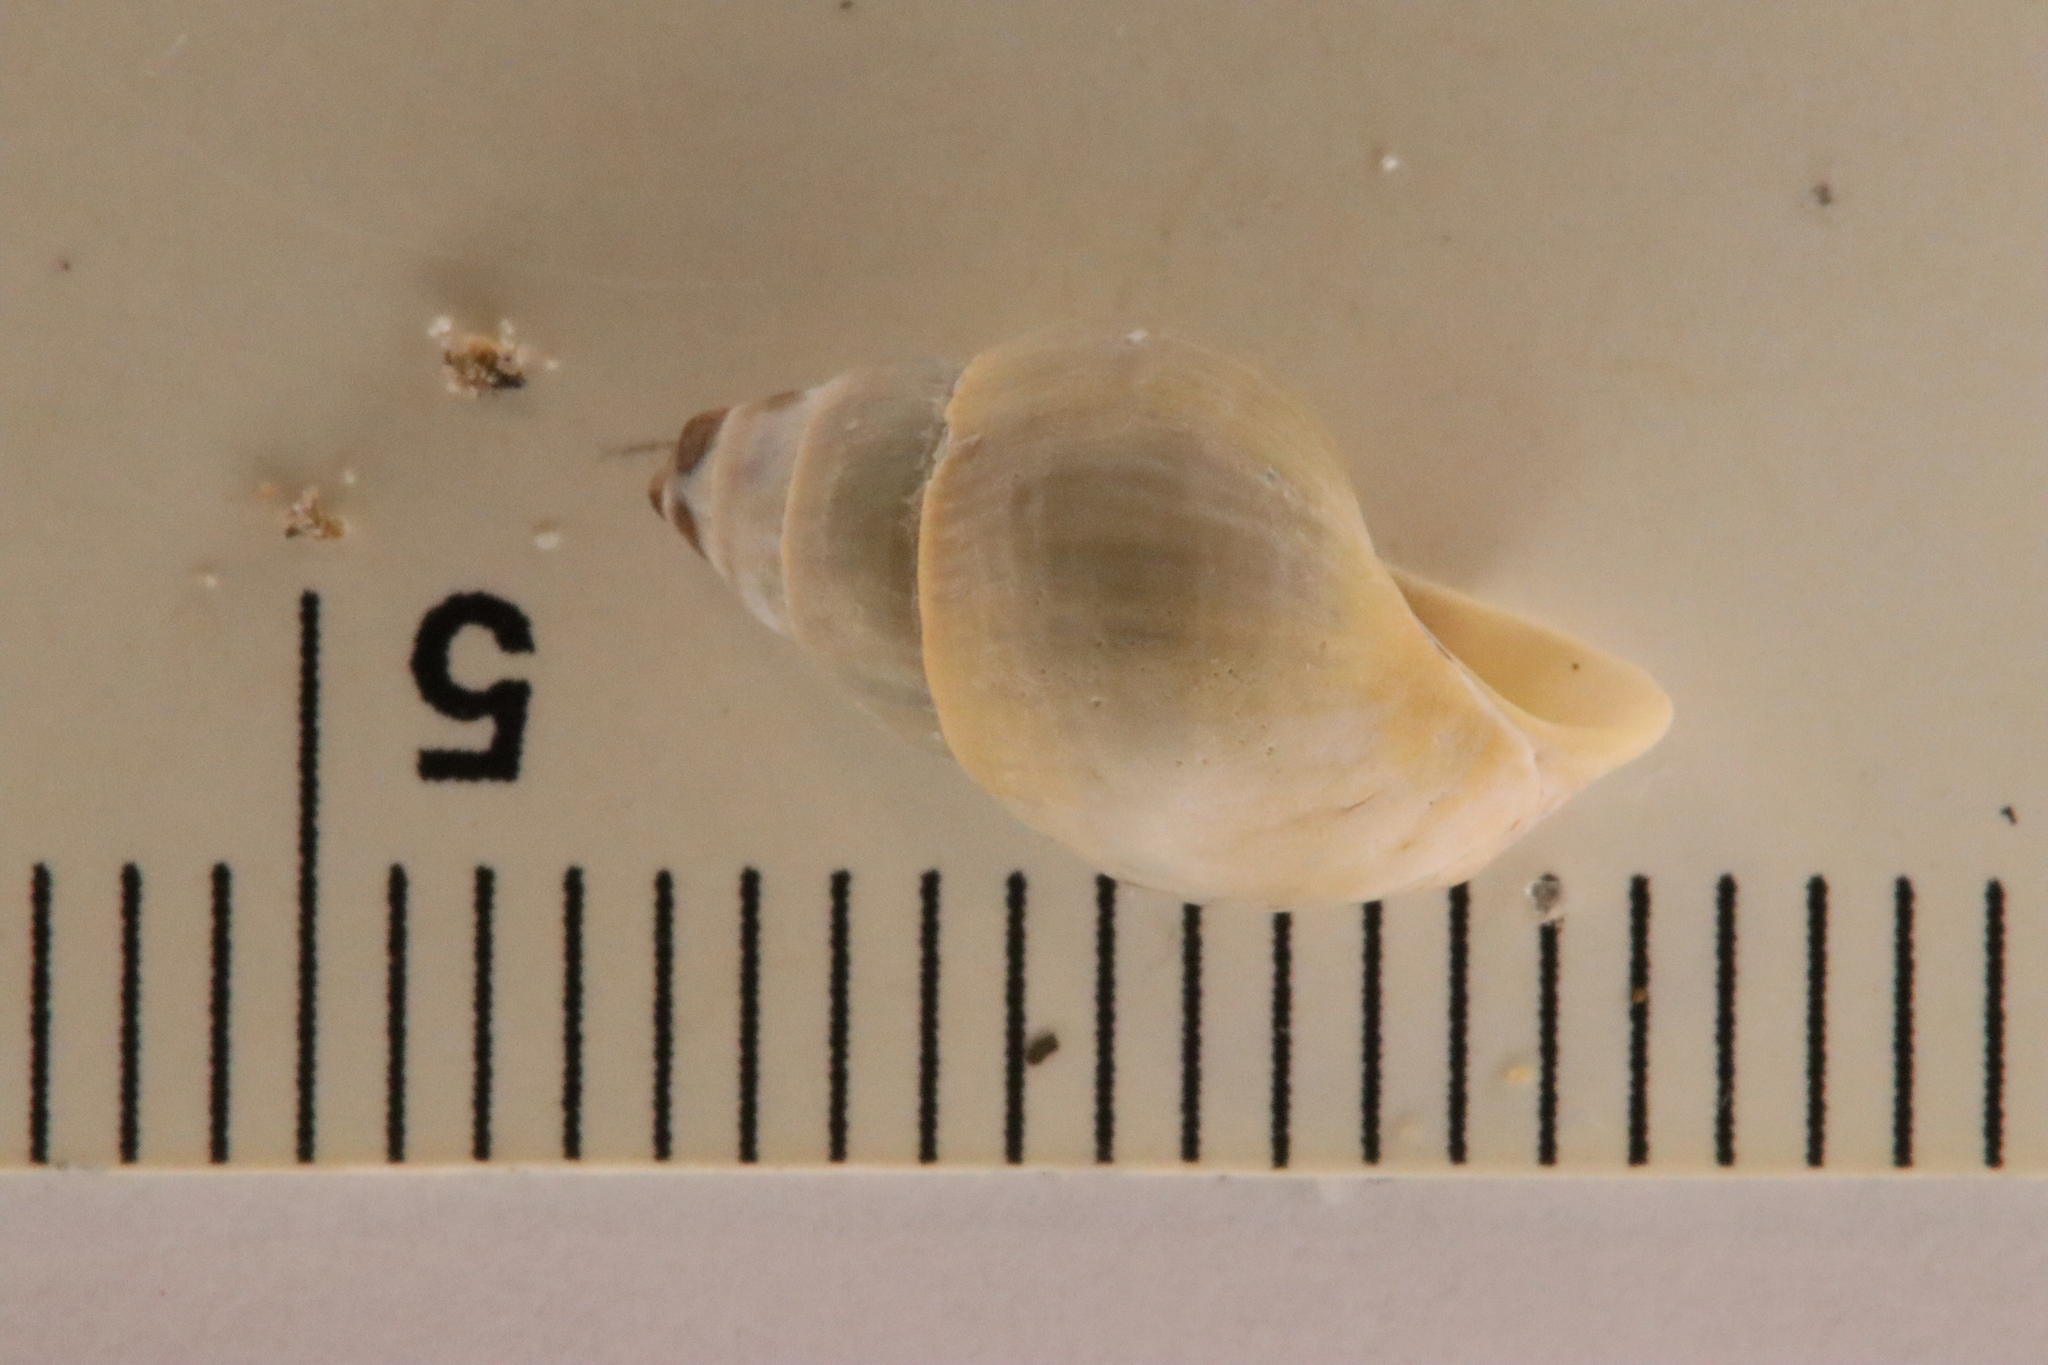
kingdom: Animalia
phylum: Mollusca
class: Gastropoda
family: Pleuroceridae
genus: Elimia
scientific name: Elimia livescens
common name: Liver elimia
